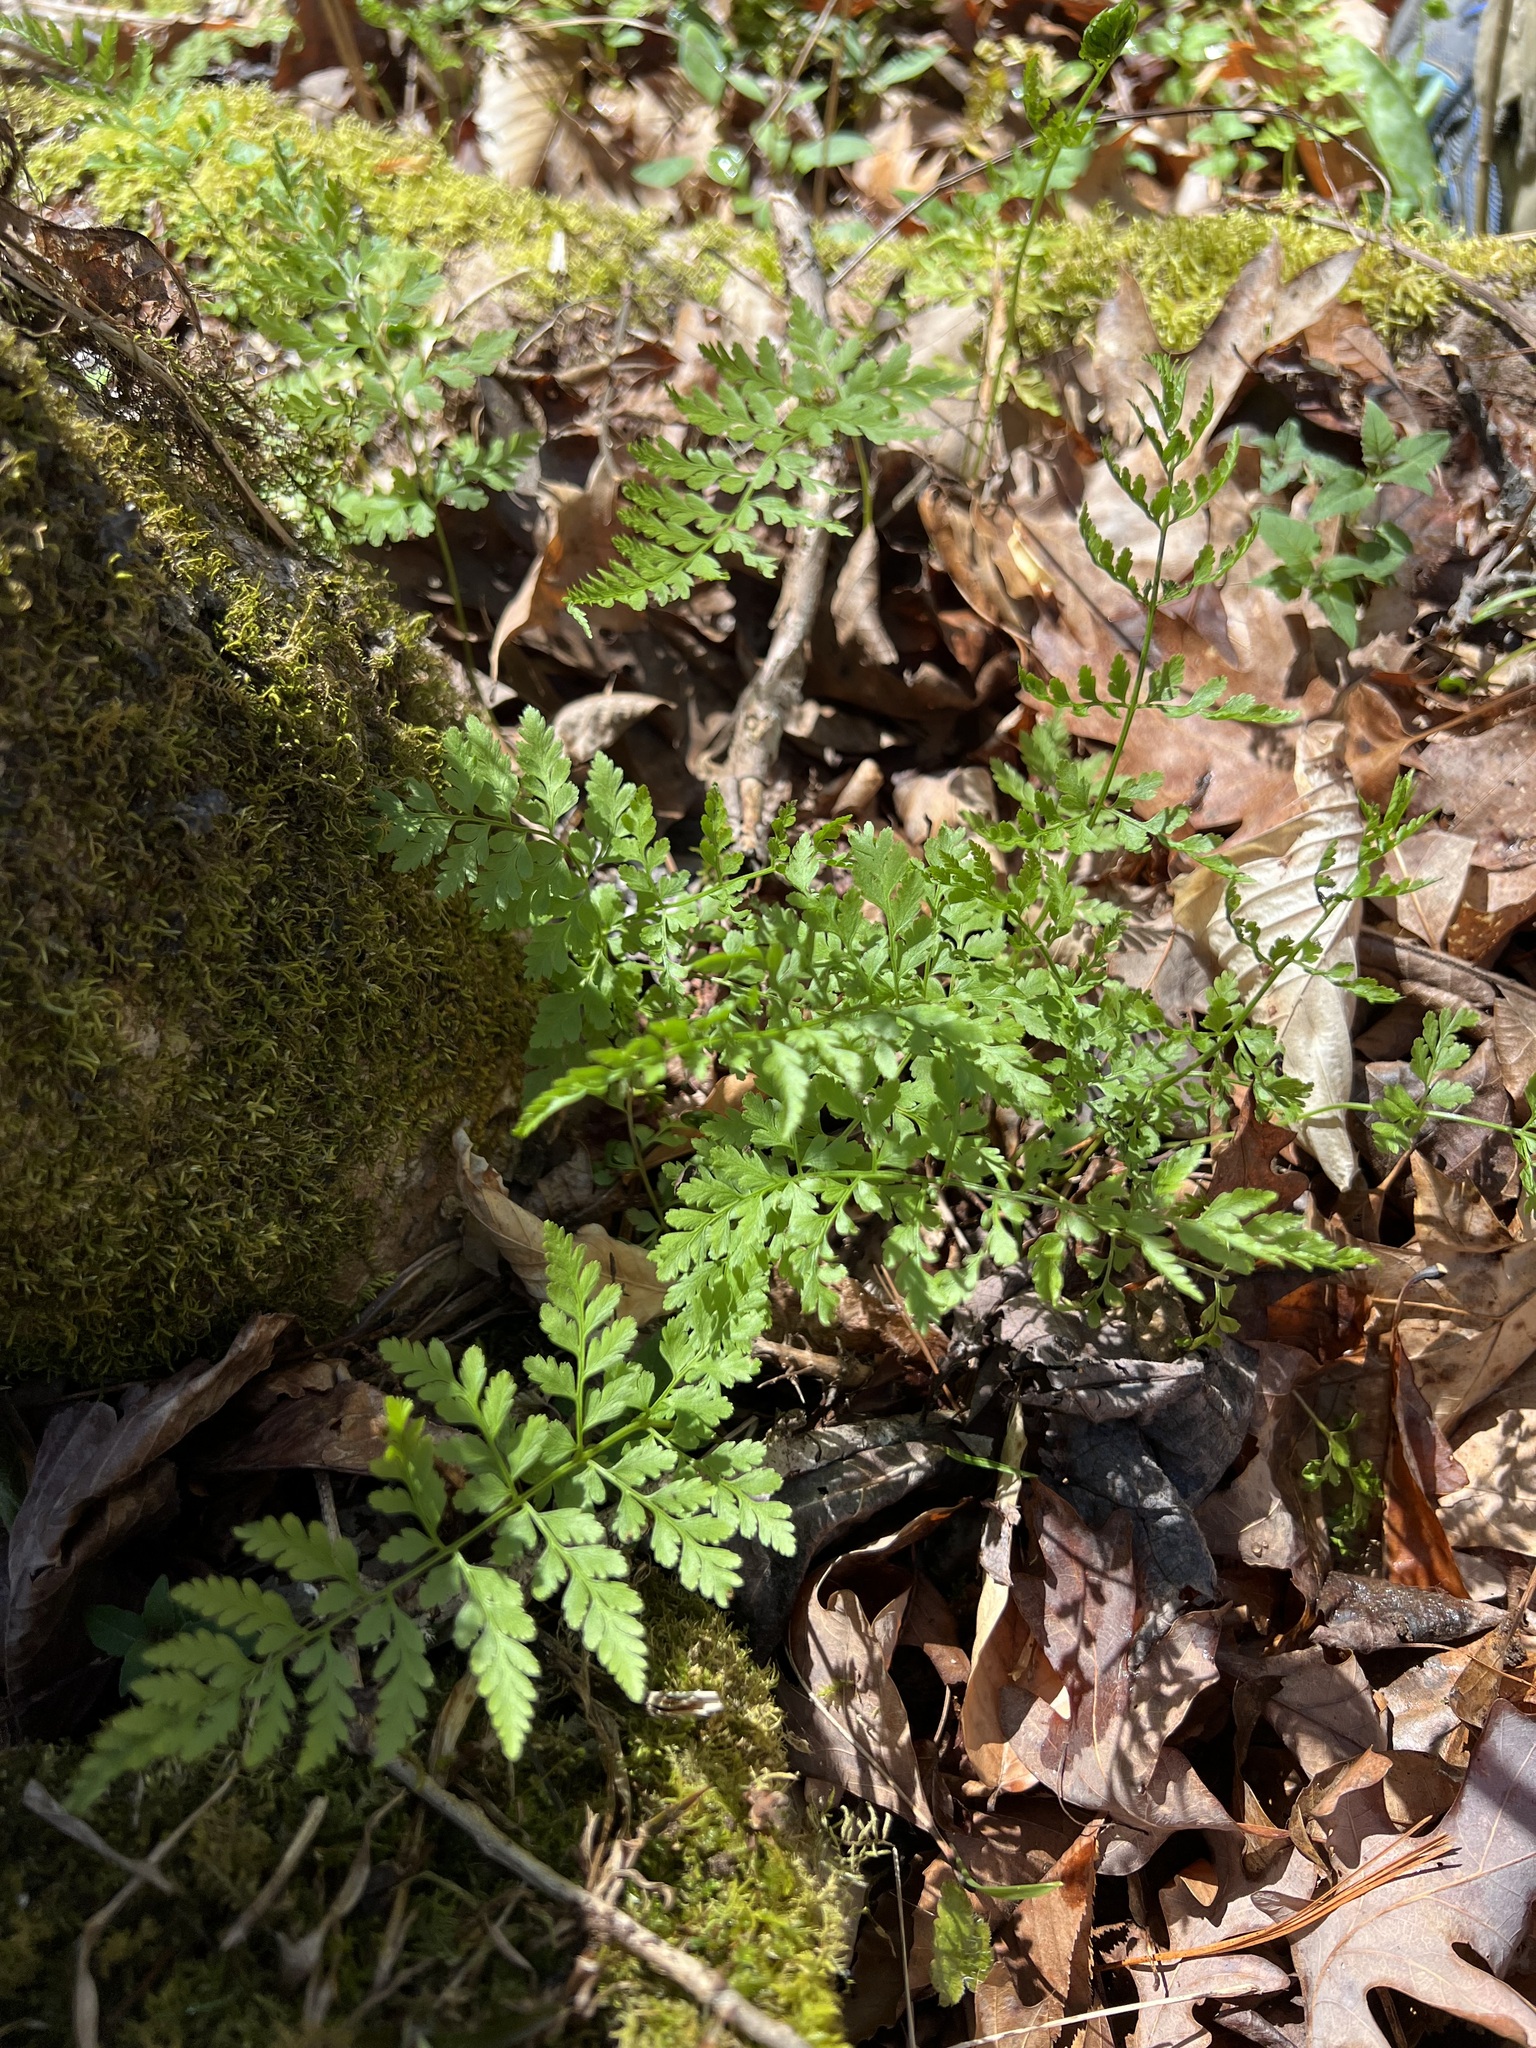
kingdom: Plantae
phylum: Tracheophyta
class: Polypodiopsida
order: Polypodiales
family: Cystopteridaceae
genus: Cystopteris
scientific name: Cystopteris protrusa
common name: Lowland brittle fern
